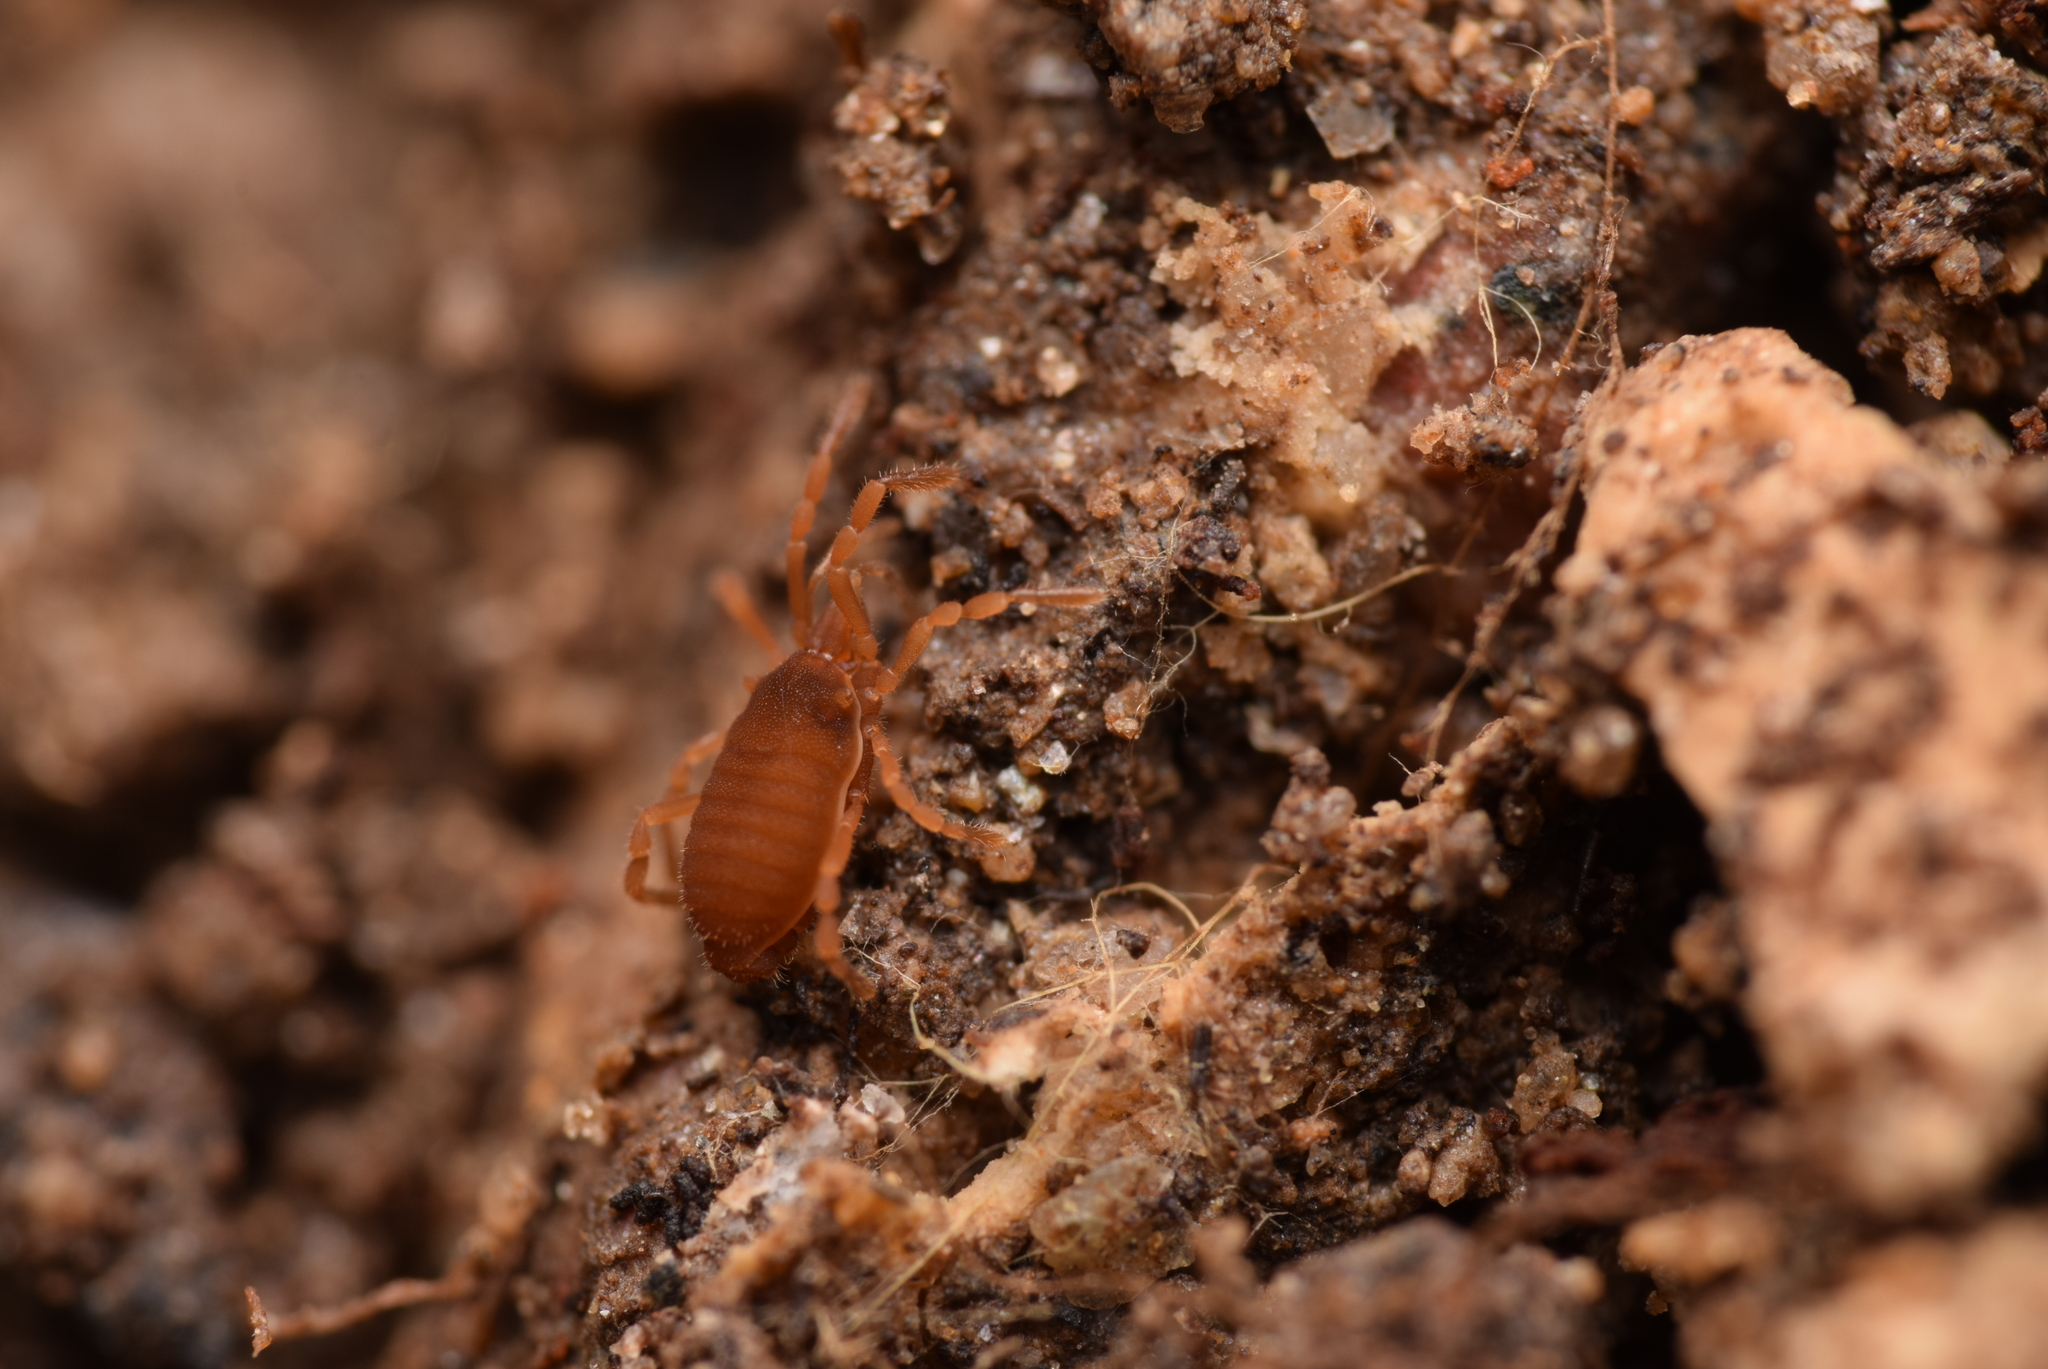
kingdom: Animalia
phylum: Arthropoda
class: Arachnida
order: Opiliones
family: Sironidae
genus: Siro
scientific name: Siro rubens
